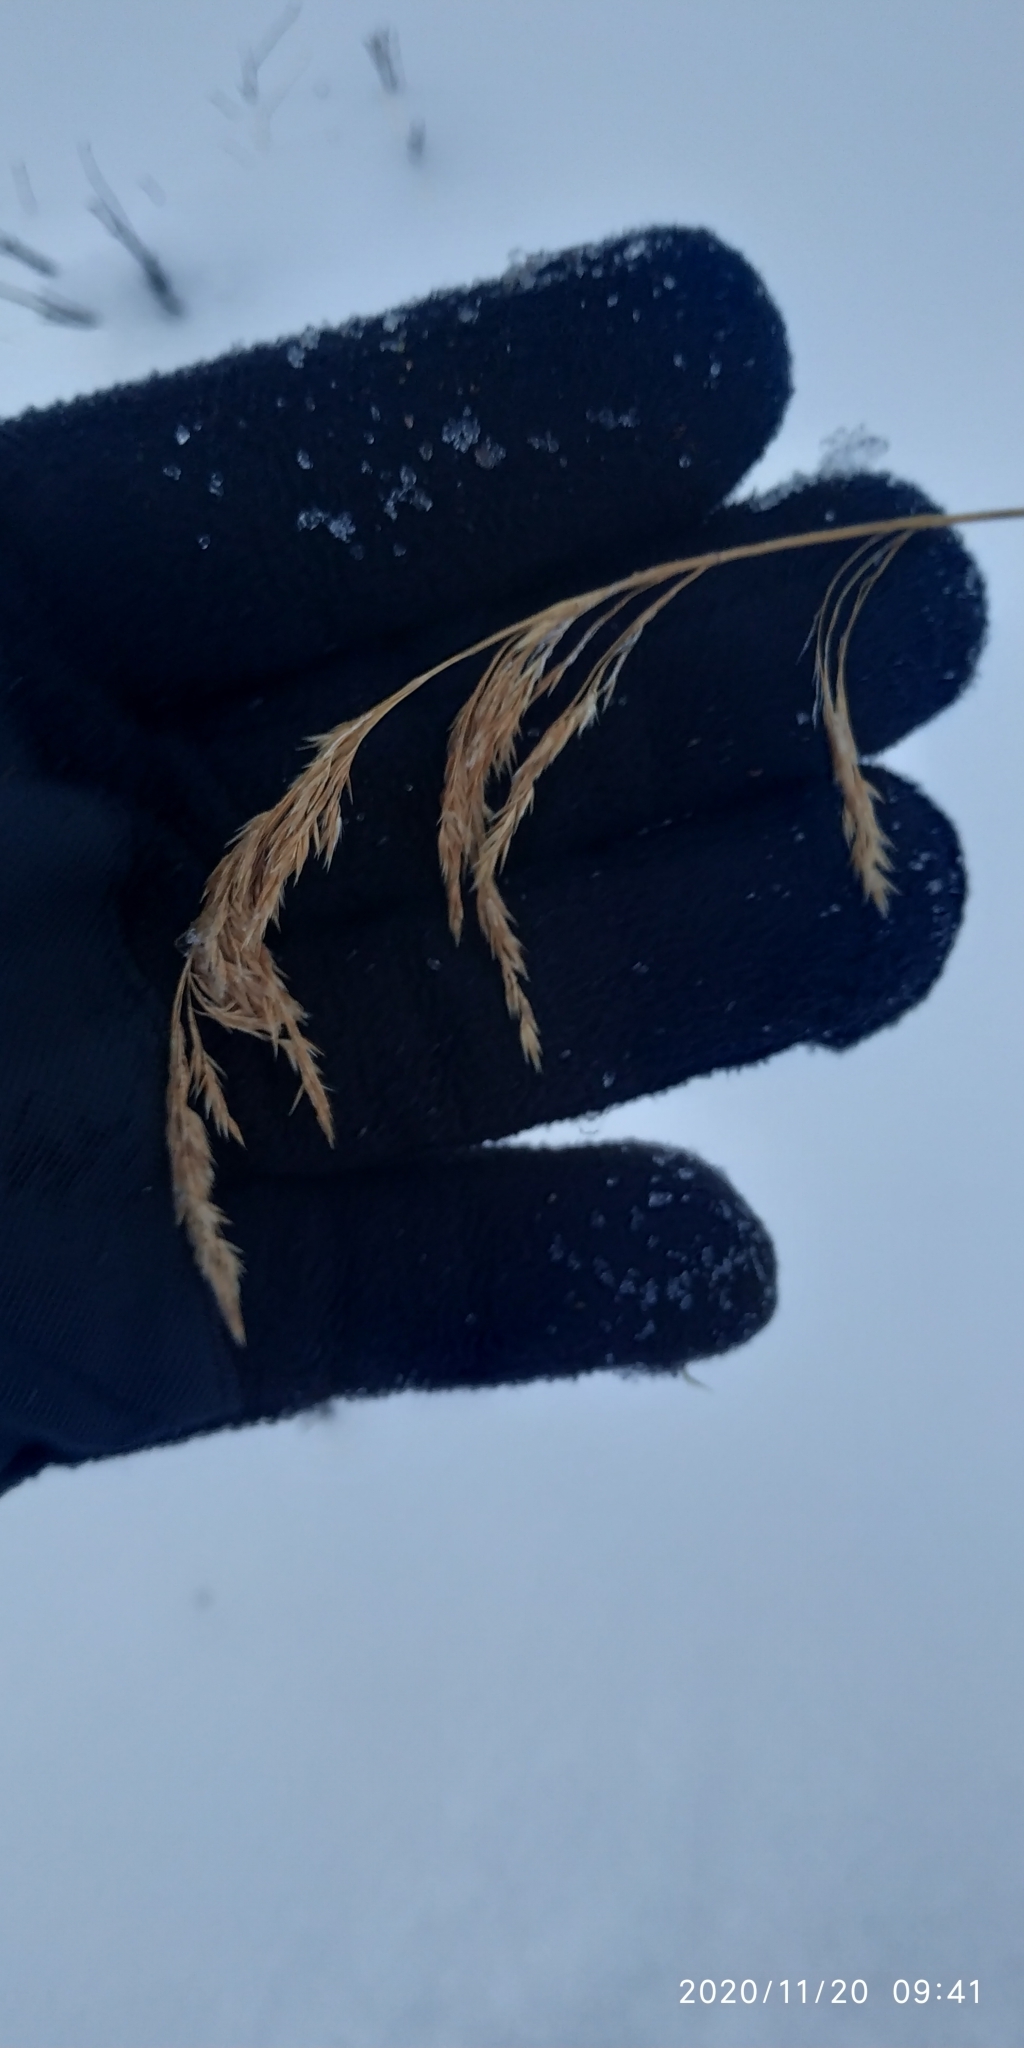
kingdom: Plantae
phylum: Tracheophyta
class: Liliopsida
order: Poales
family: Poaceae
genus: Calamagrostis
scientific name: Calamagrostis purpurea
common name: Scandinavian small-reed
